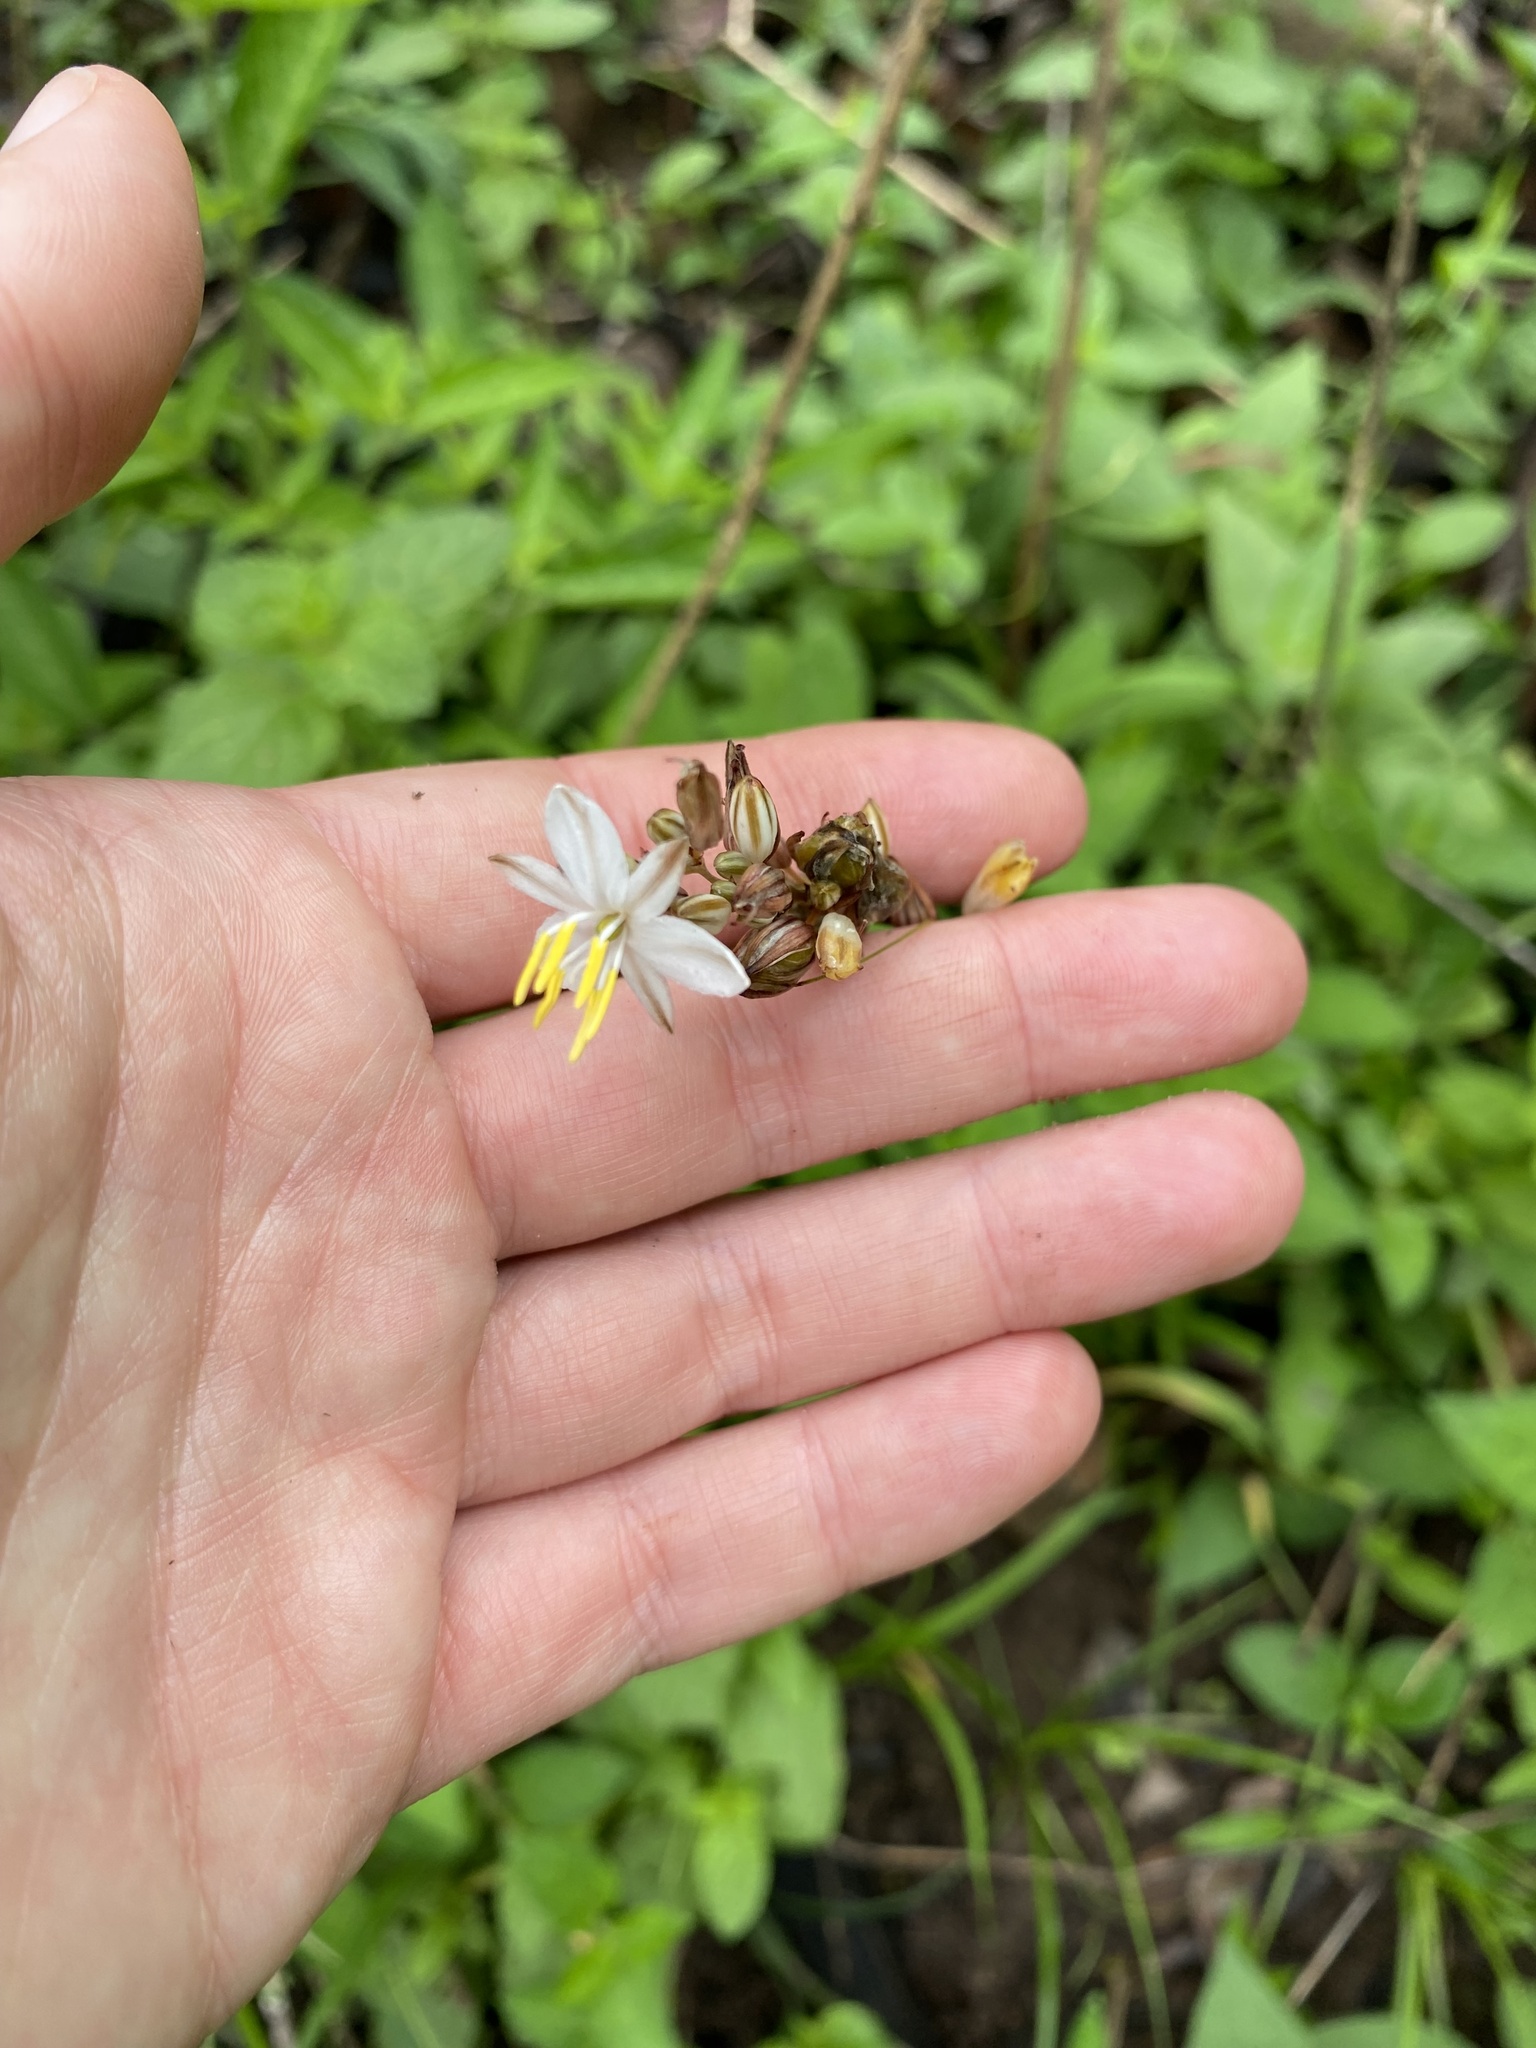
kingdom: Plantae
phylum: Tracheophyta
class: Liliopsida
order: Asparagales
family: Asparagaceae
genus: Chlorophytum
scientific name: Chlorophytum saundersiae
